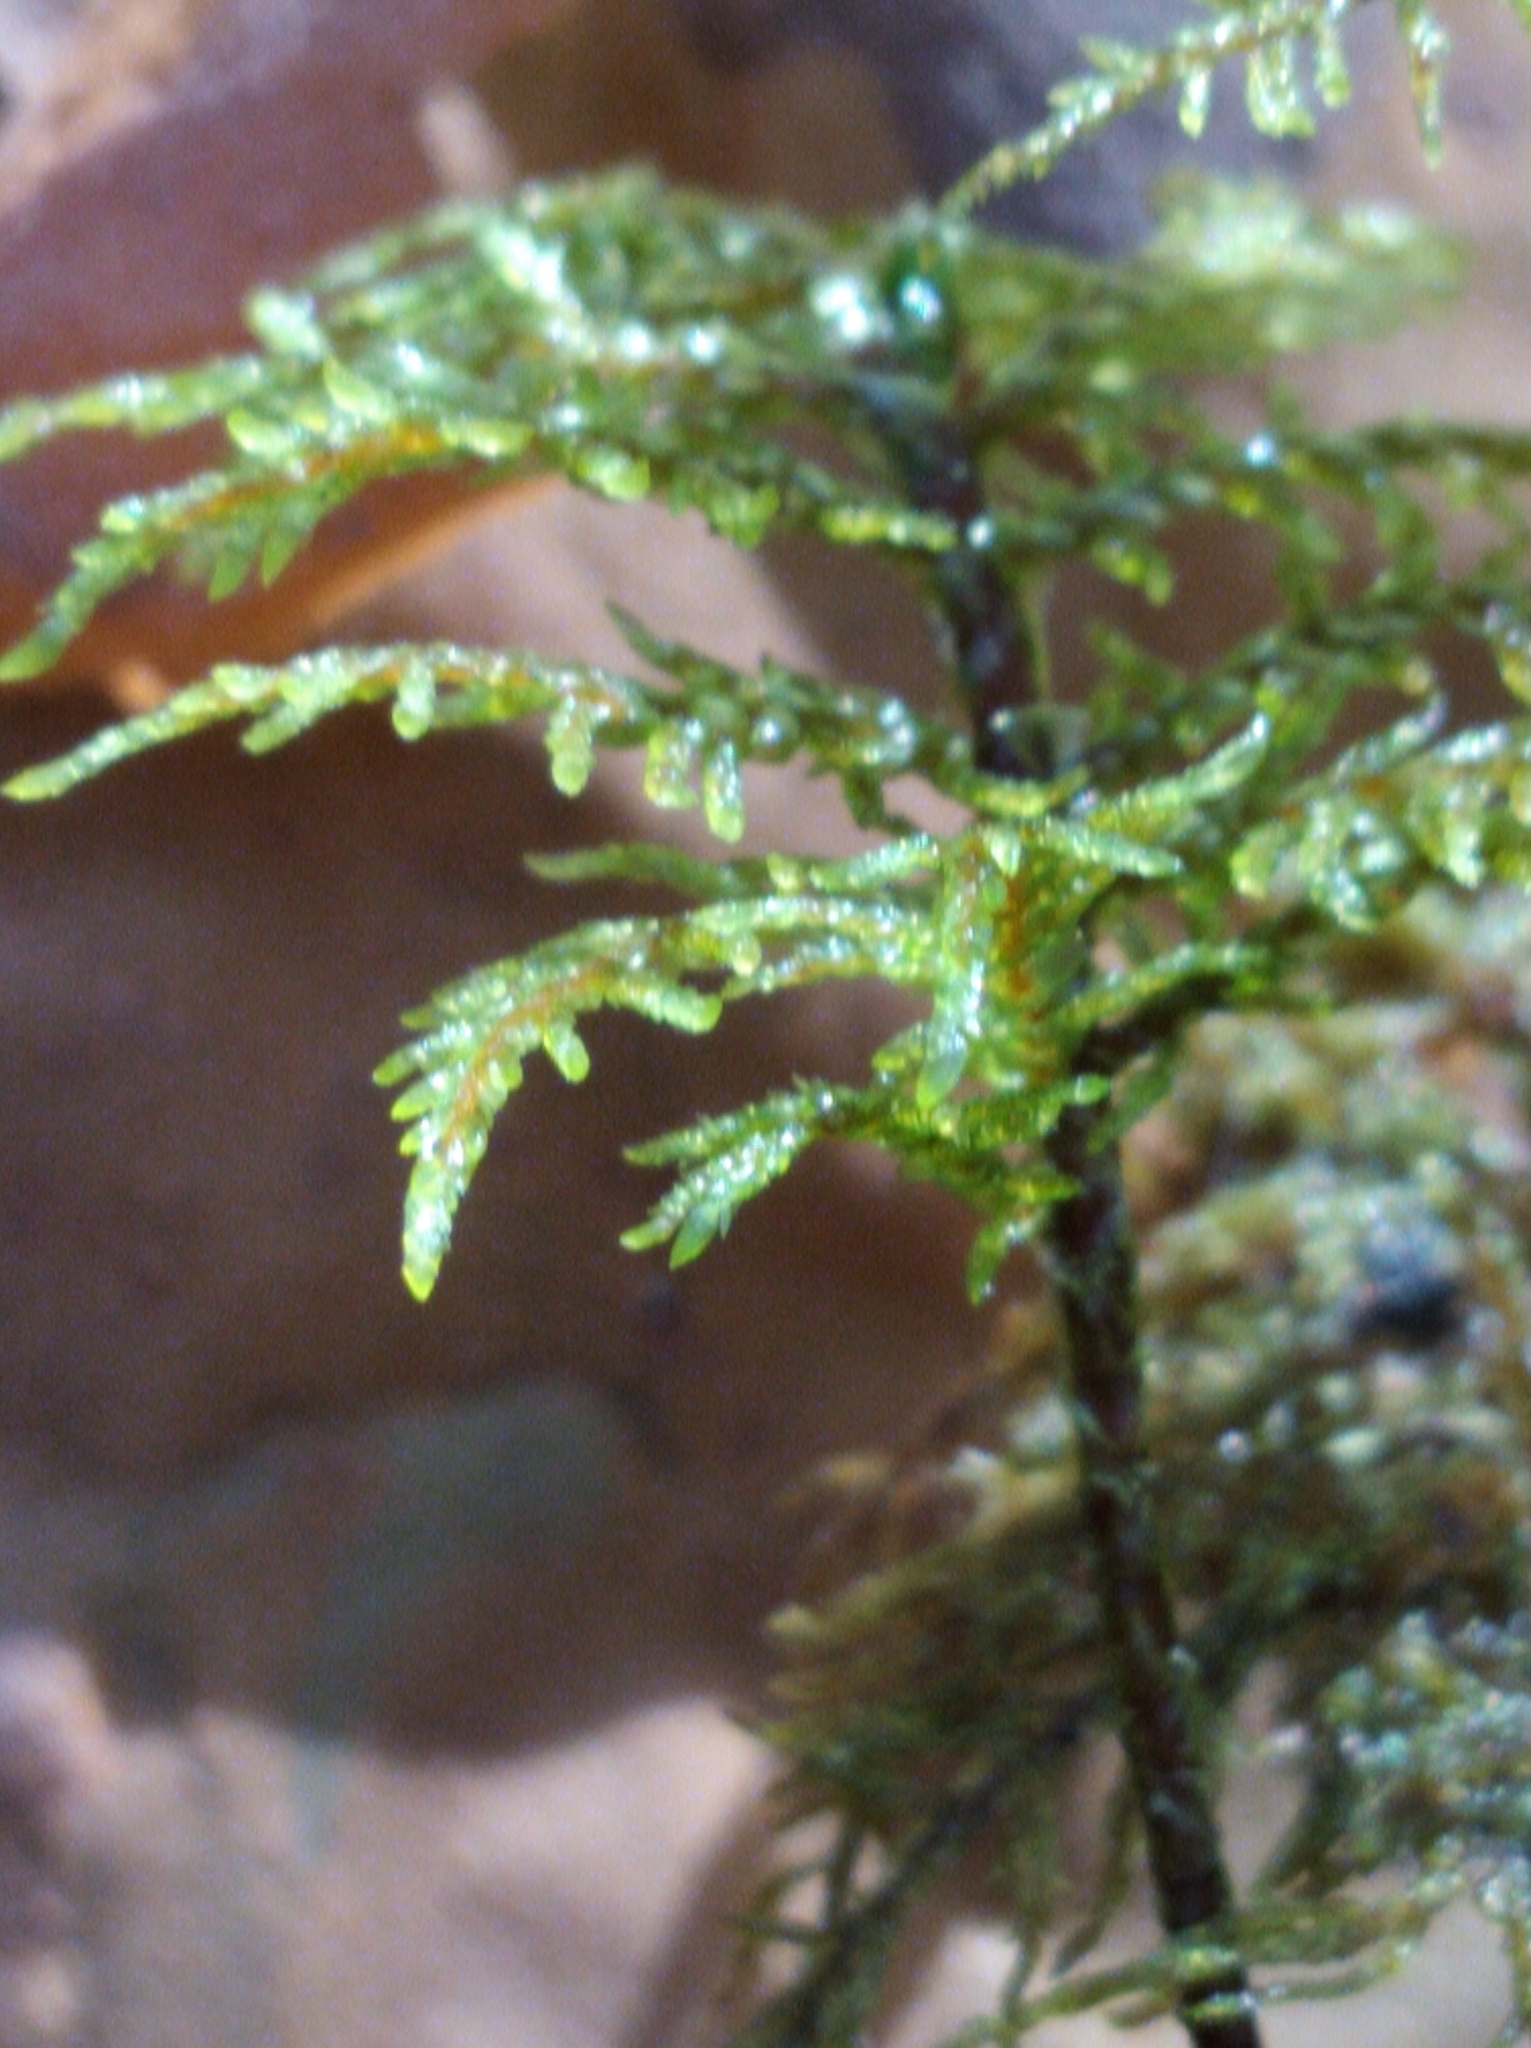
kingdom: Plantae
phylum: Bryophyta
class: Bryopsida
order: Hypnales
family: Hylocomiaceae
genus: Hylocomium
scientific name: Hylocomium splendens
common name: Stairstep moss
